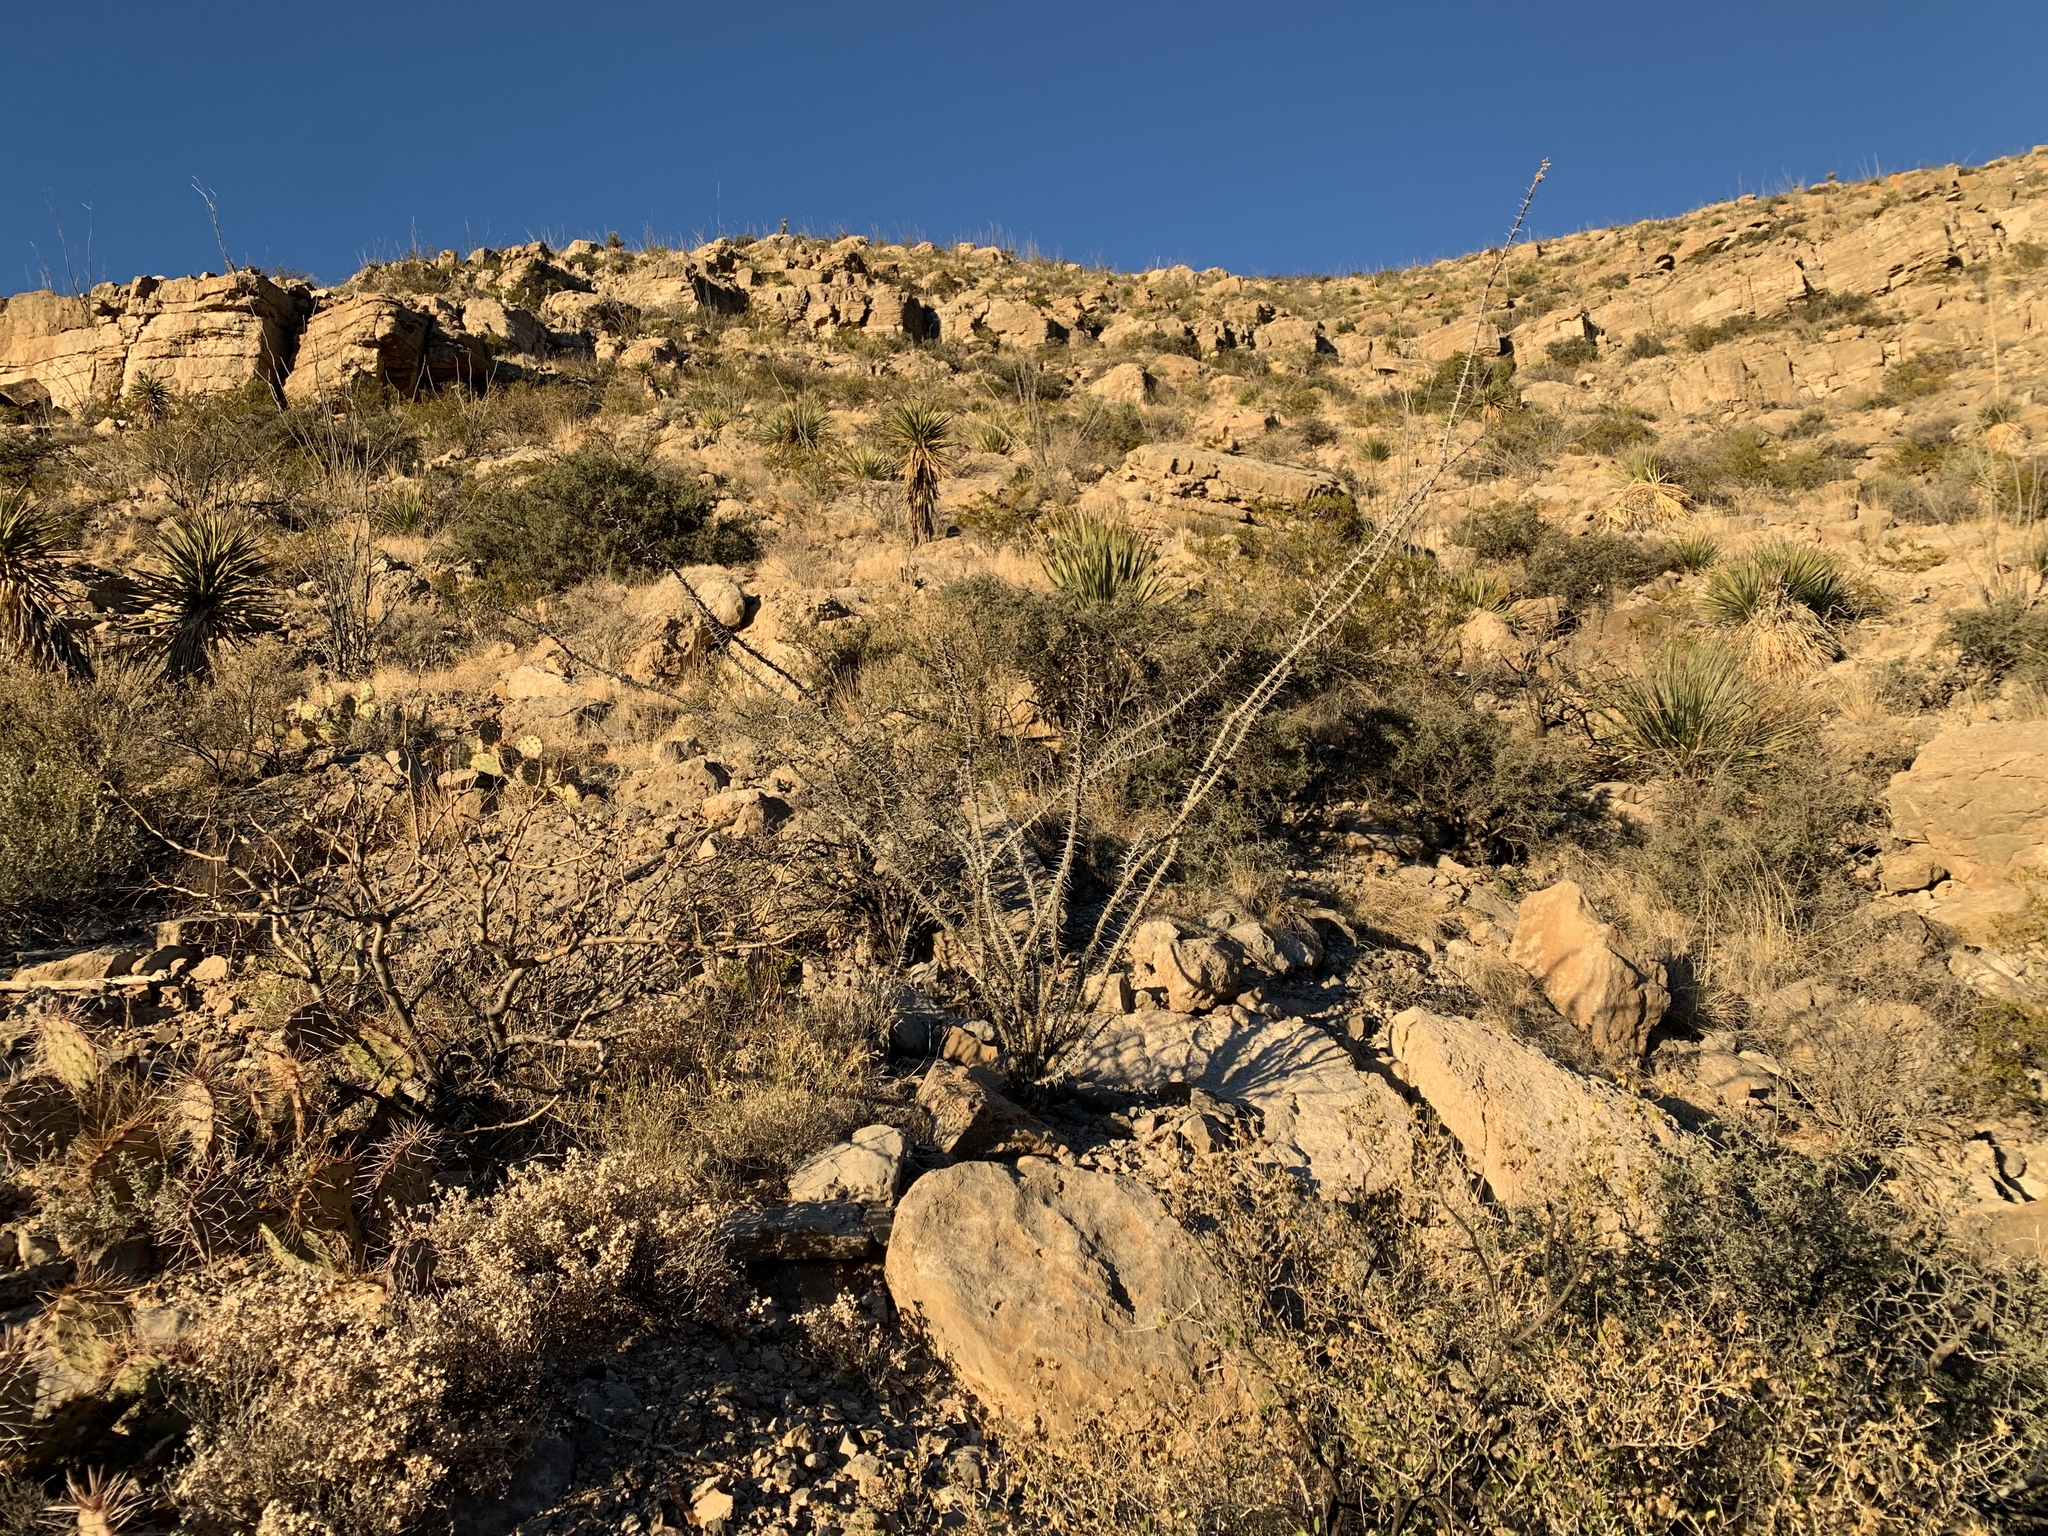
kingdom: Plantae
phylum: Tracheophyta
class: Magnoliopsida
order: Ericales
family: Fouquieriaceae
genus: Fouquieria
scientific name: Fouquieria splendens
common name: Vine-cactus
